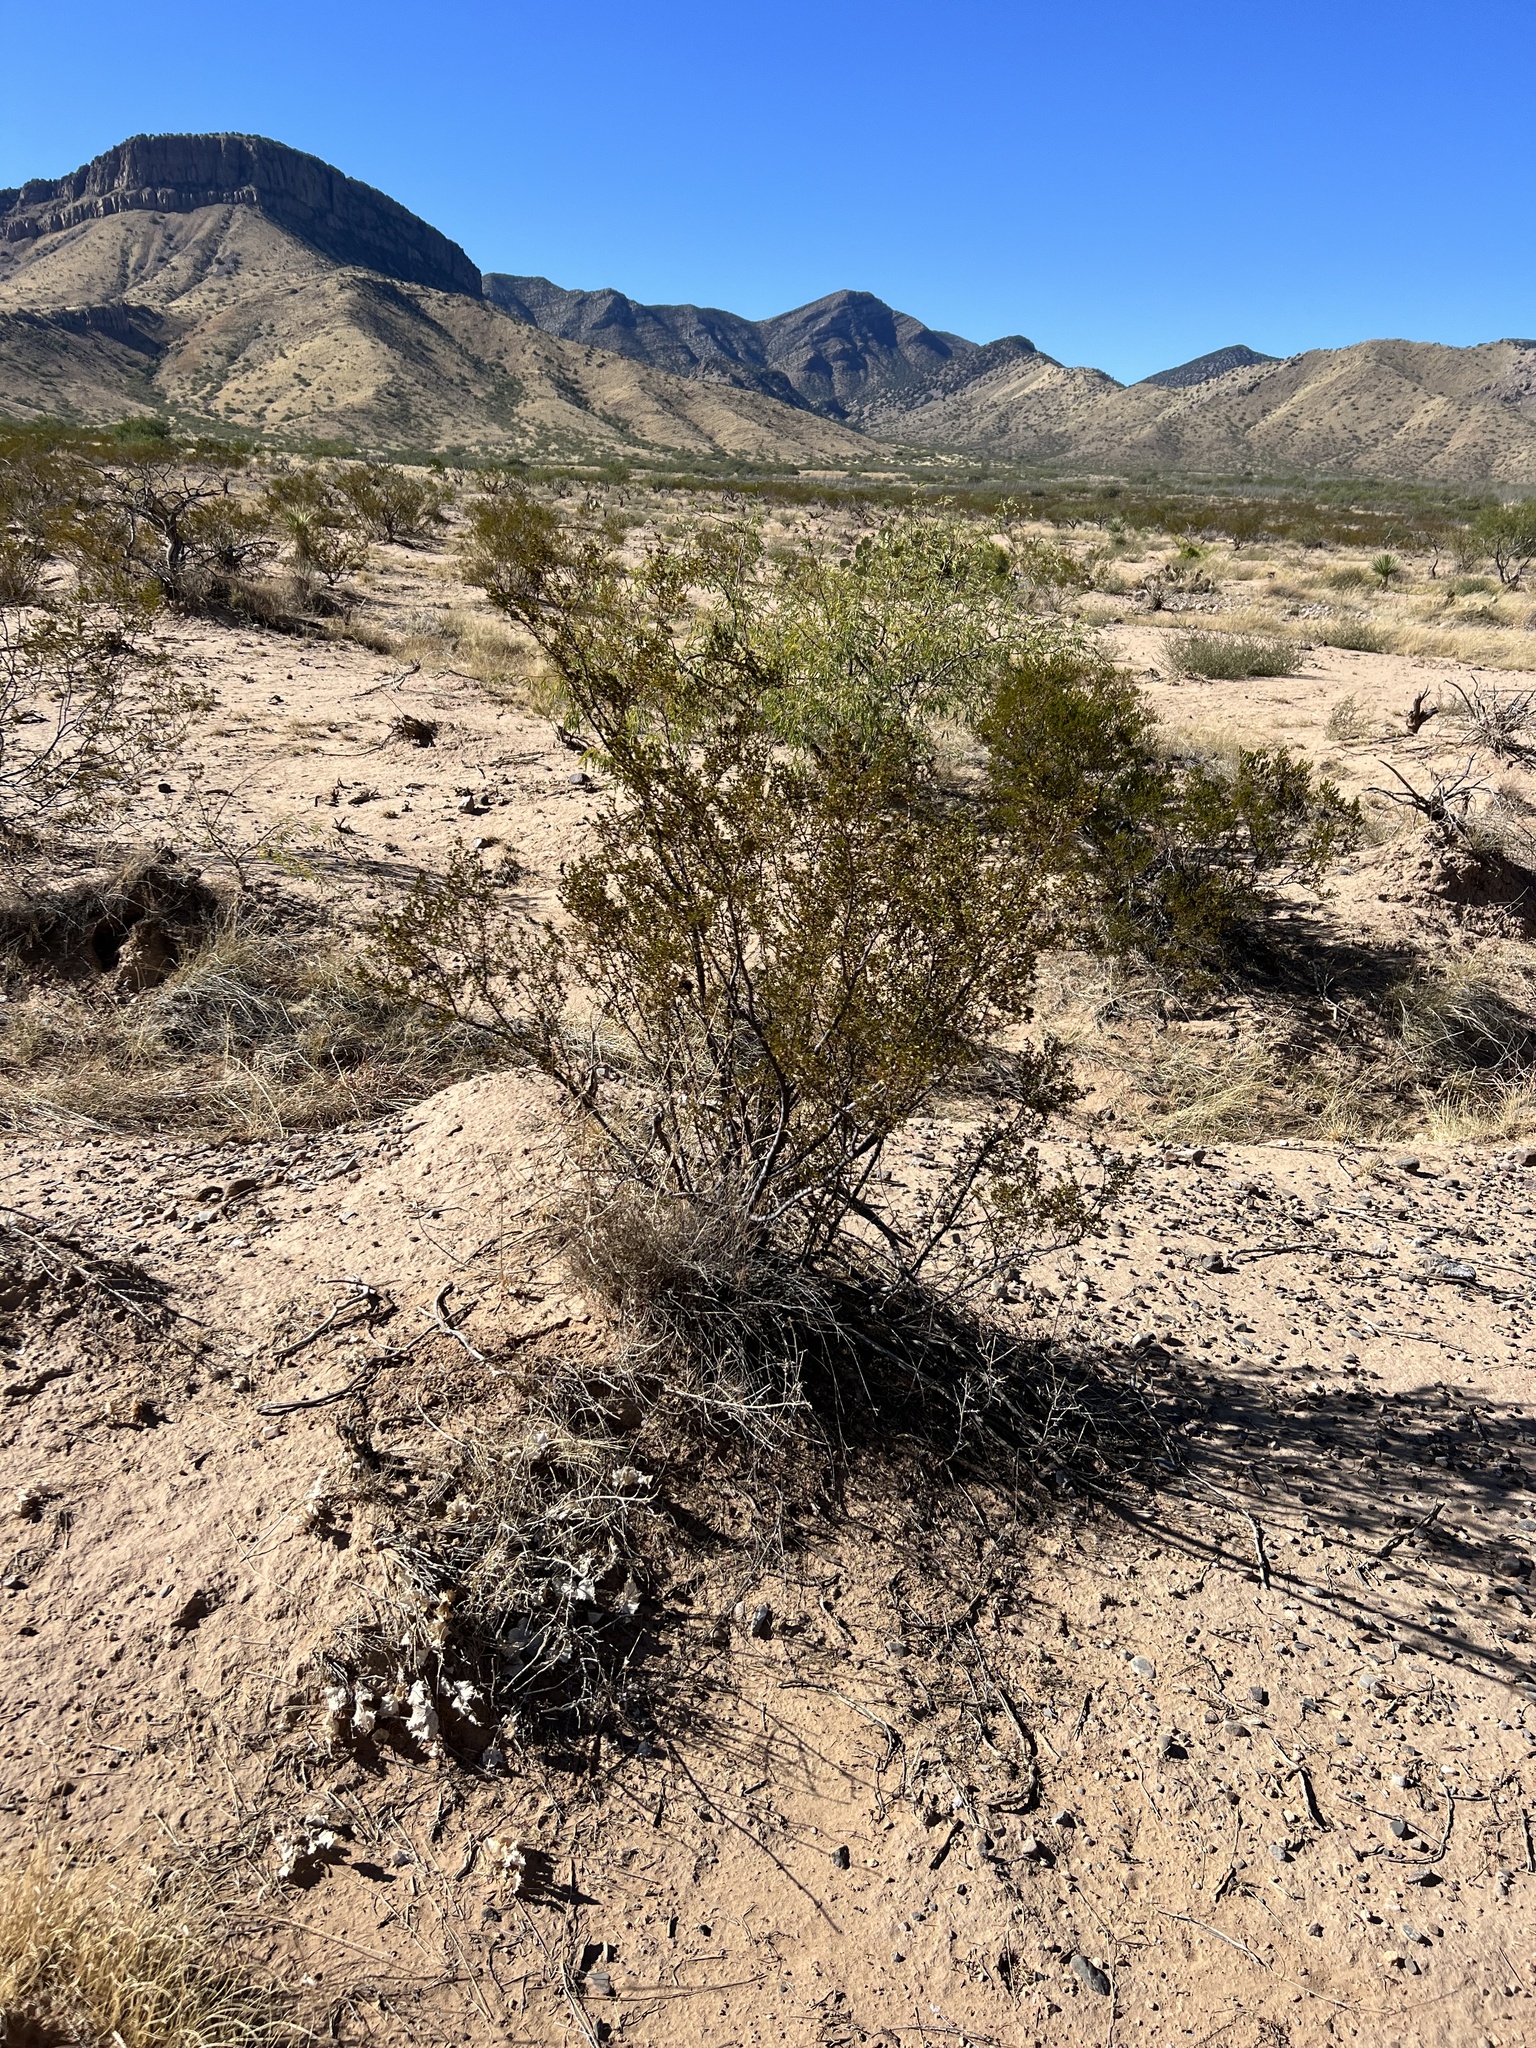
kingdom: Plantae
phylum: Tracheophyta
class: Magnoliopsida
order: Zygophyllales
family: Zygophyllaceae
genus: Larrea
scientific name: Larrea tridentata
